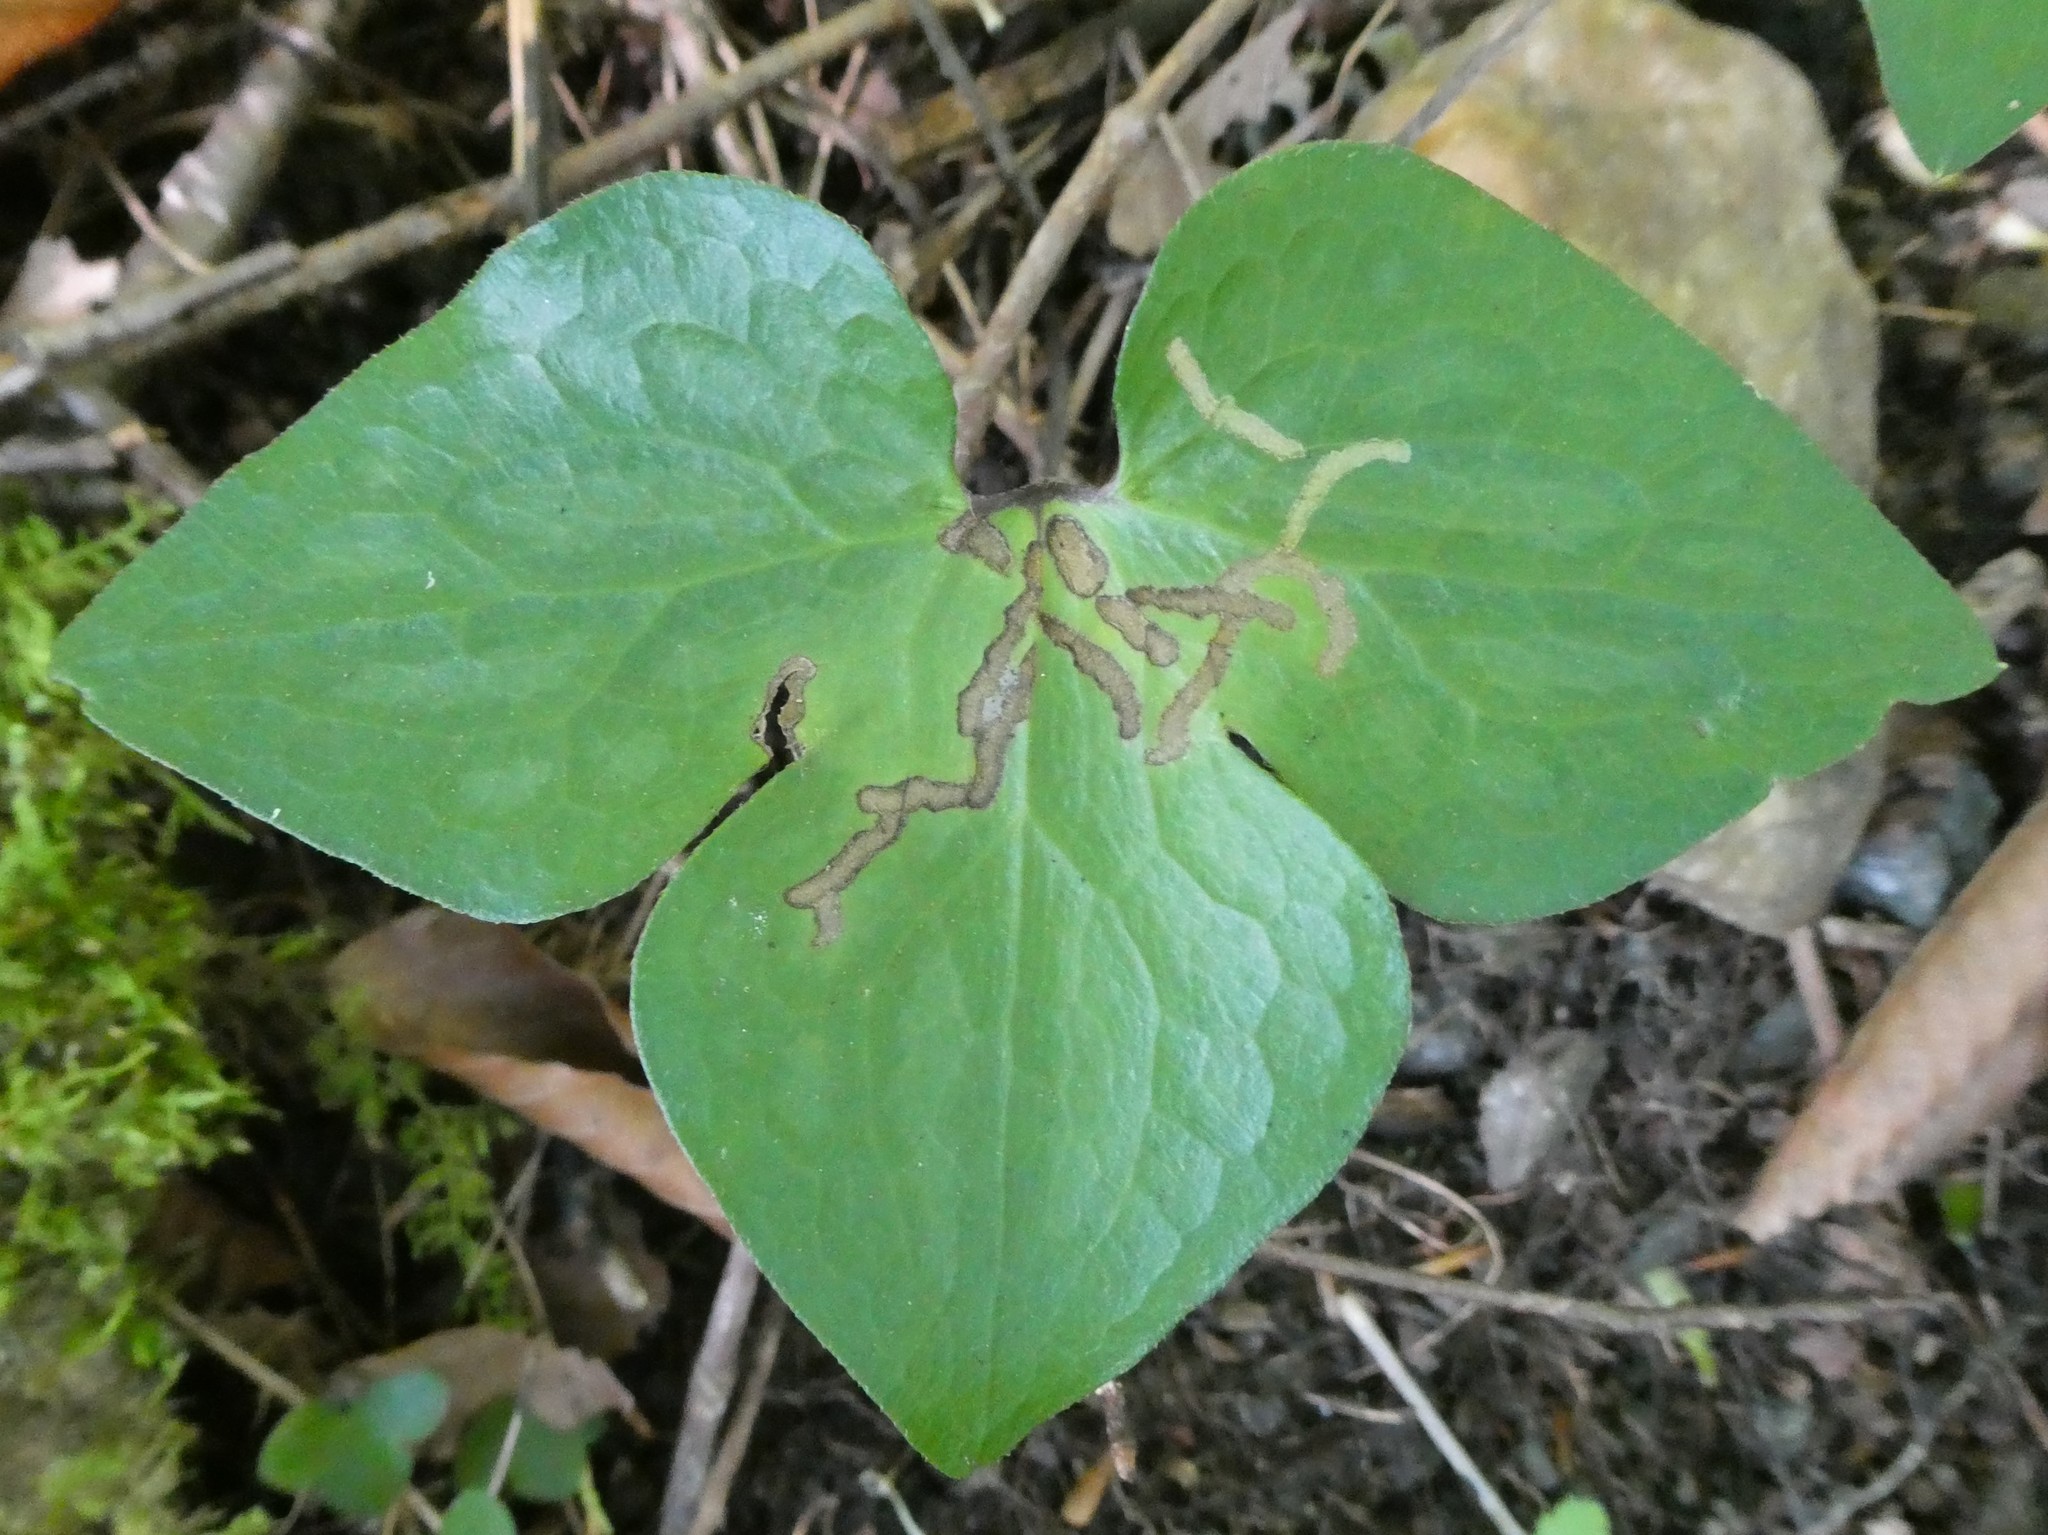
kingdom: Plantae
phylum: Tracheophyta
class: Magnoliopsida
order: Ranunculales
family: Ranunculaceae
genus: Hepatica
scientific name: Hepatica acutiloba
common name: Sharp-lobed hepatica
